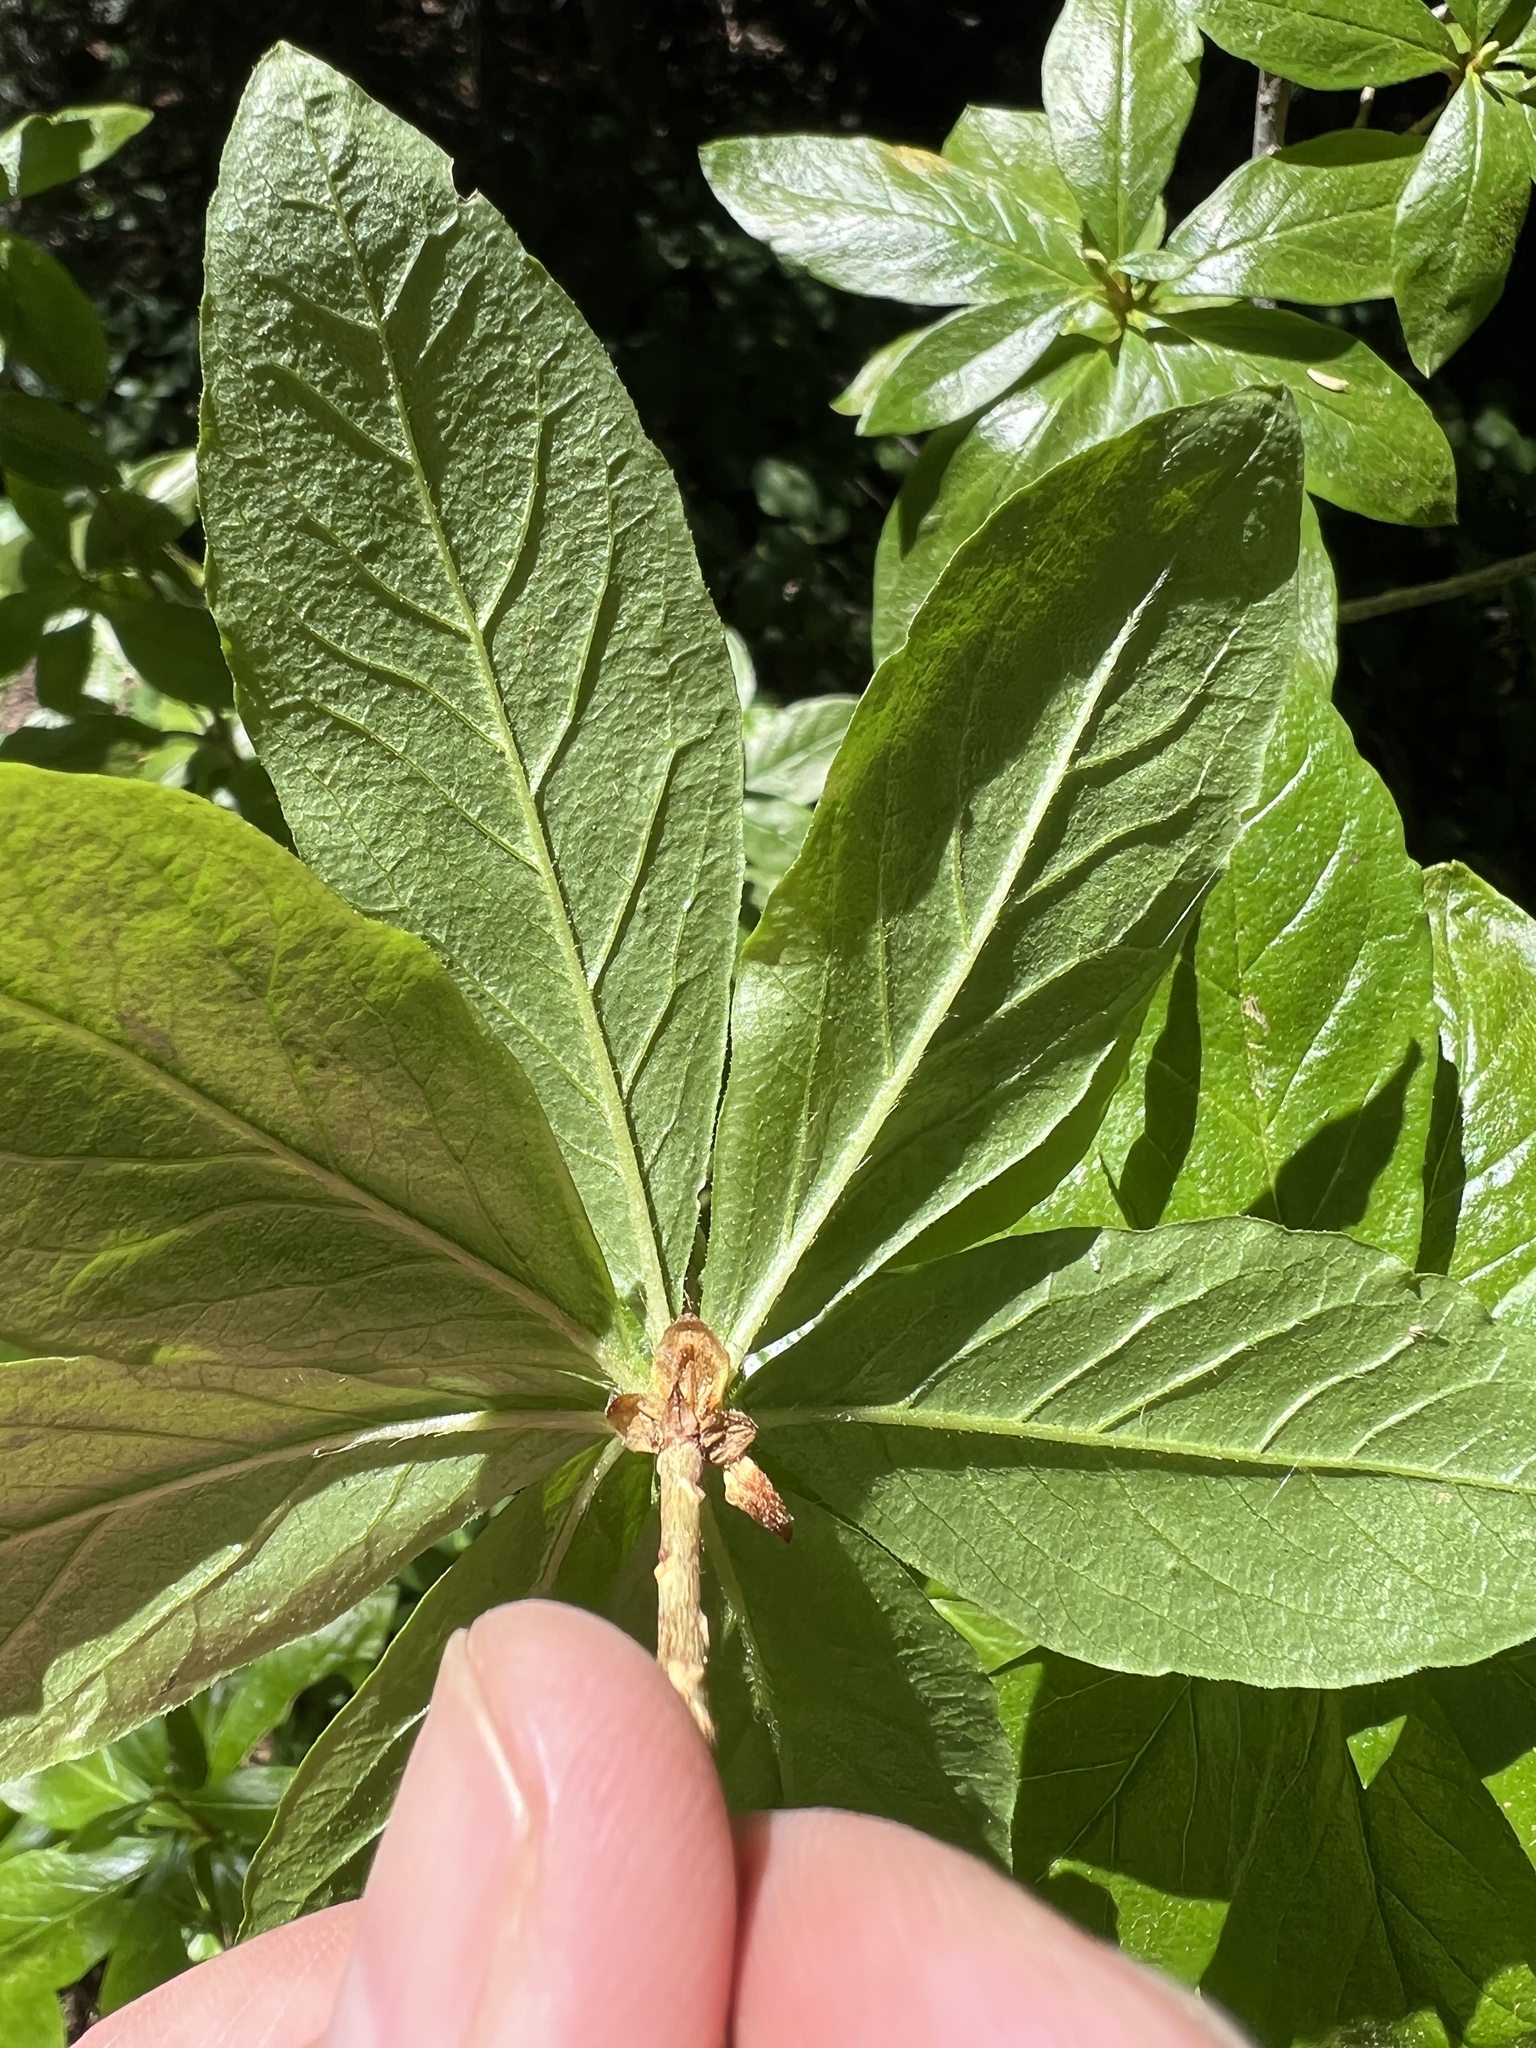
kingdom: Plantae
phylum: Tracheophyta
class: Magnoliopsida
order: Ericales
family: Ericaceae
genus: Rhododendron
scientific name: Rhododendron albiflorum
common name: White rhododendron
